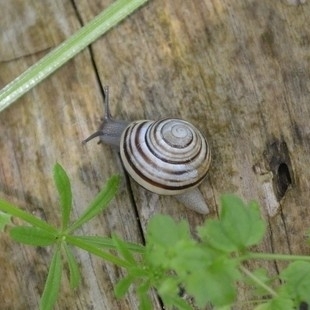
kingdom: Animalia
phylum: Mollusca
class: Gastropoda
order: Stylommatophora
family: Helicidae
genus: Cepaea
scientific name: Cepaea hortensis
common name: White-lip gardensnail
